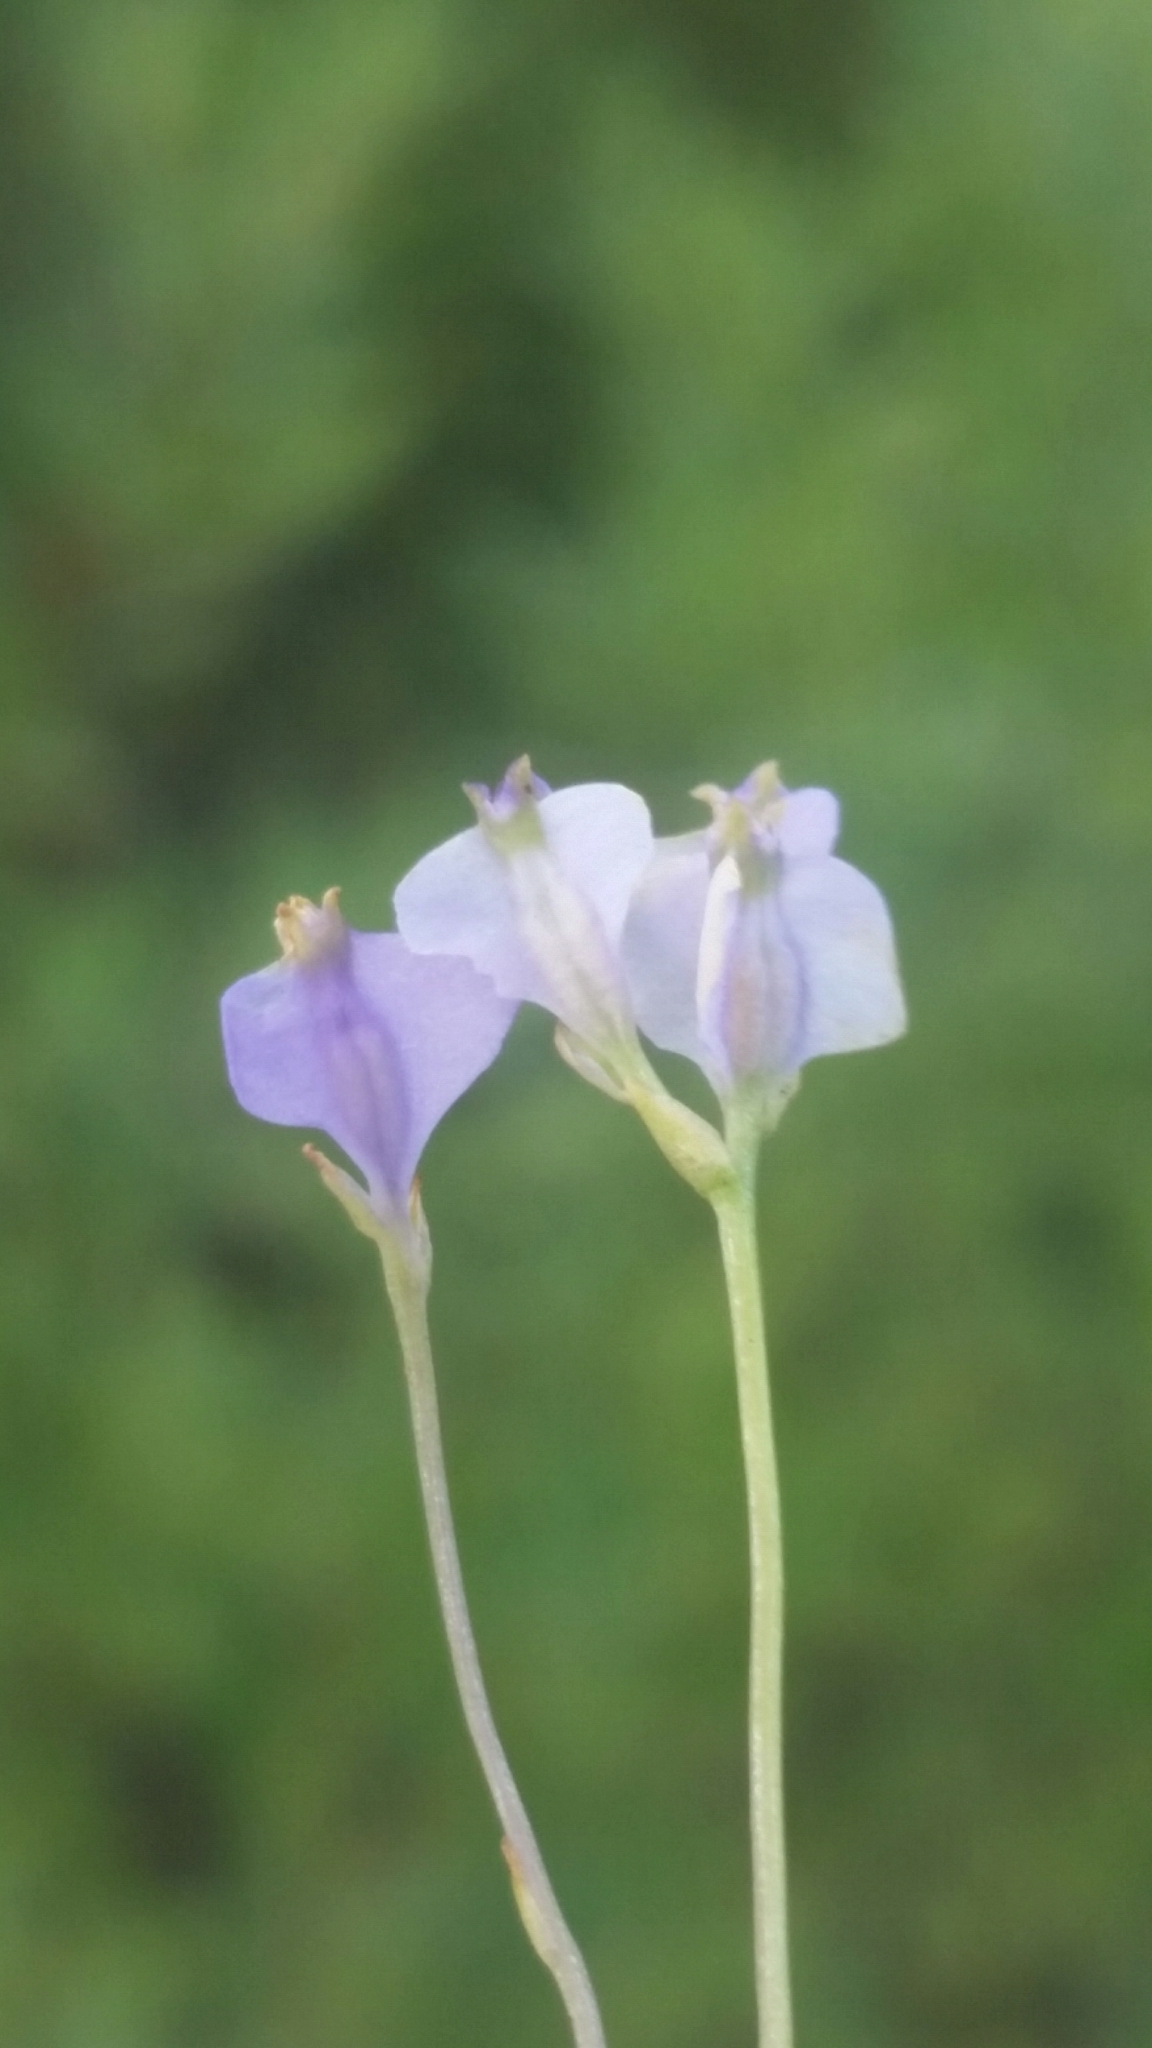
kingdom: Plantae
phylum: Tracheophyta
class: Liliopsida
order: Dioscoreales
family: Burmanniaceae
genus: Burmannia
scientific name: Burmannia biflora
